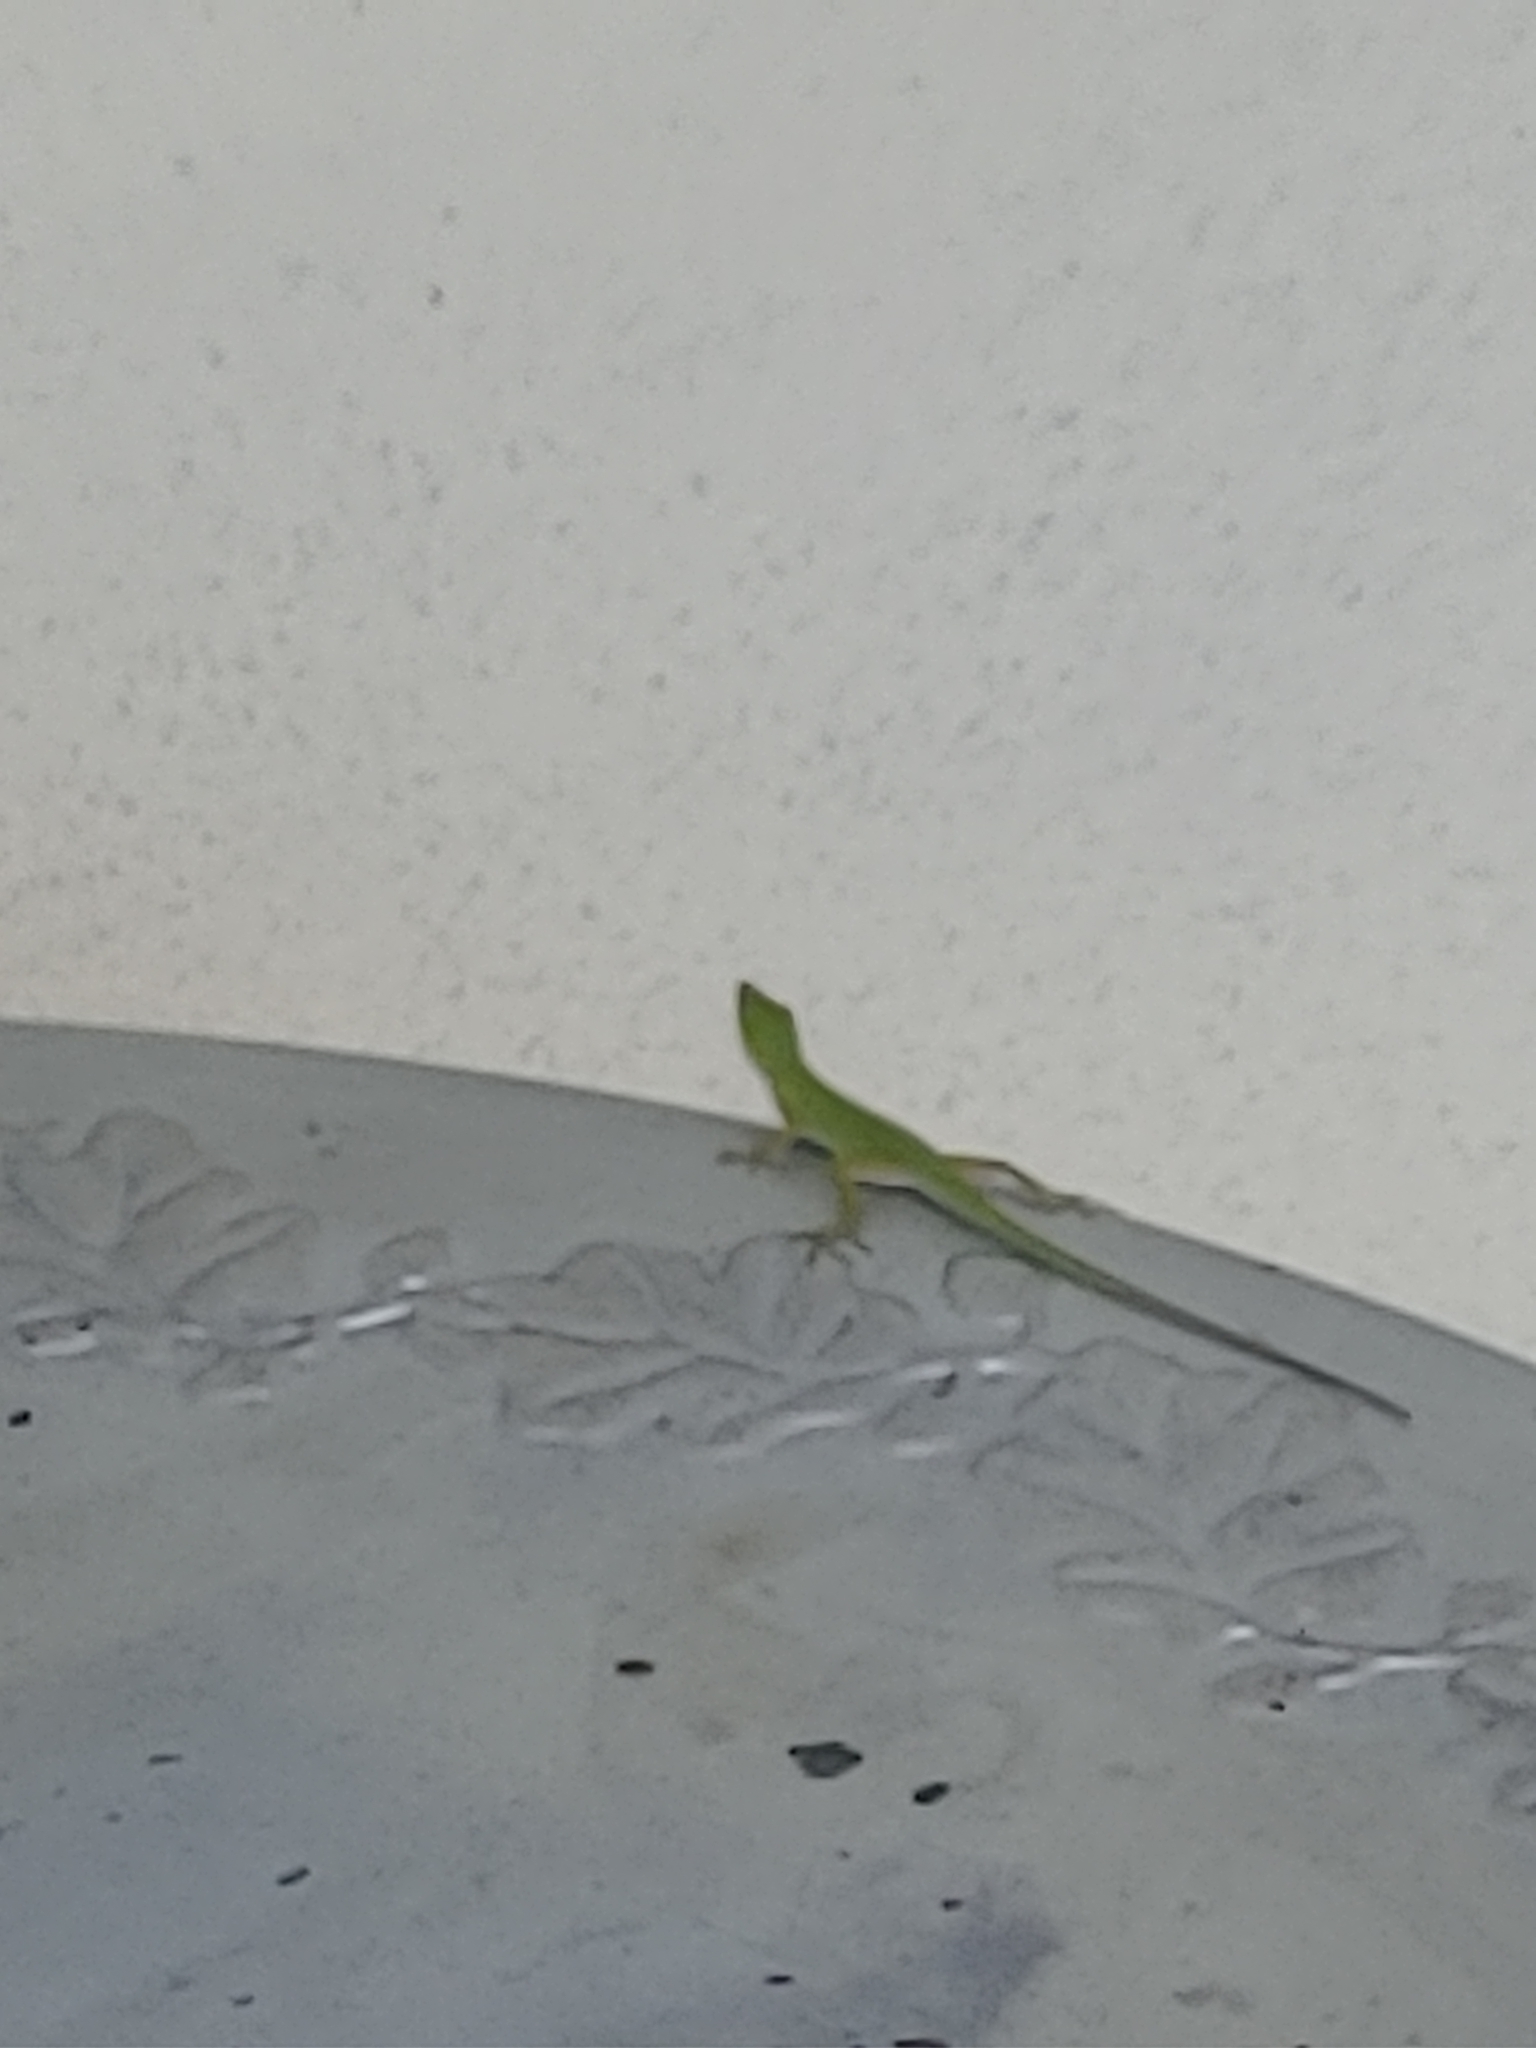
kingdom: Animalia
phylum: Chordata
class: Squamata
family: Dactyloidae
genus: Anolis
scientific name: Anolis carolinensis
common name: Green anole
